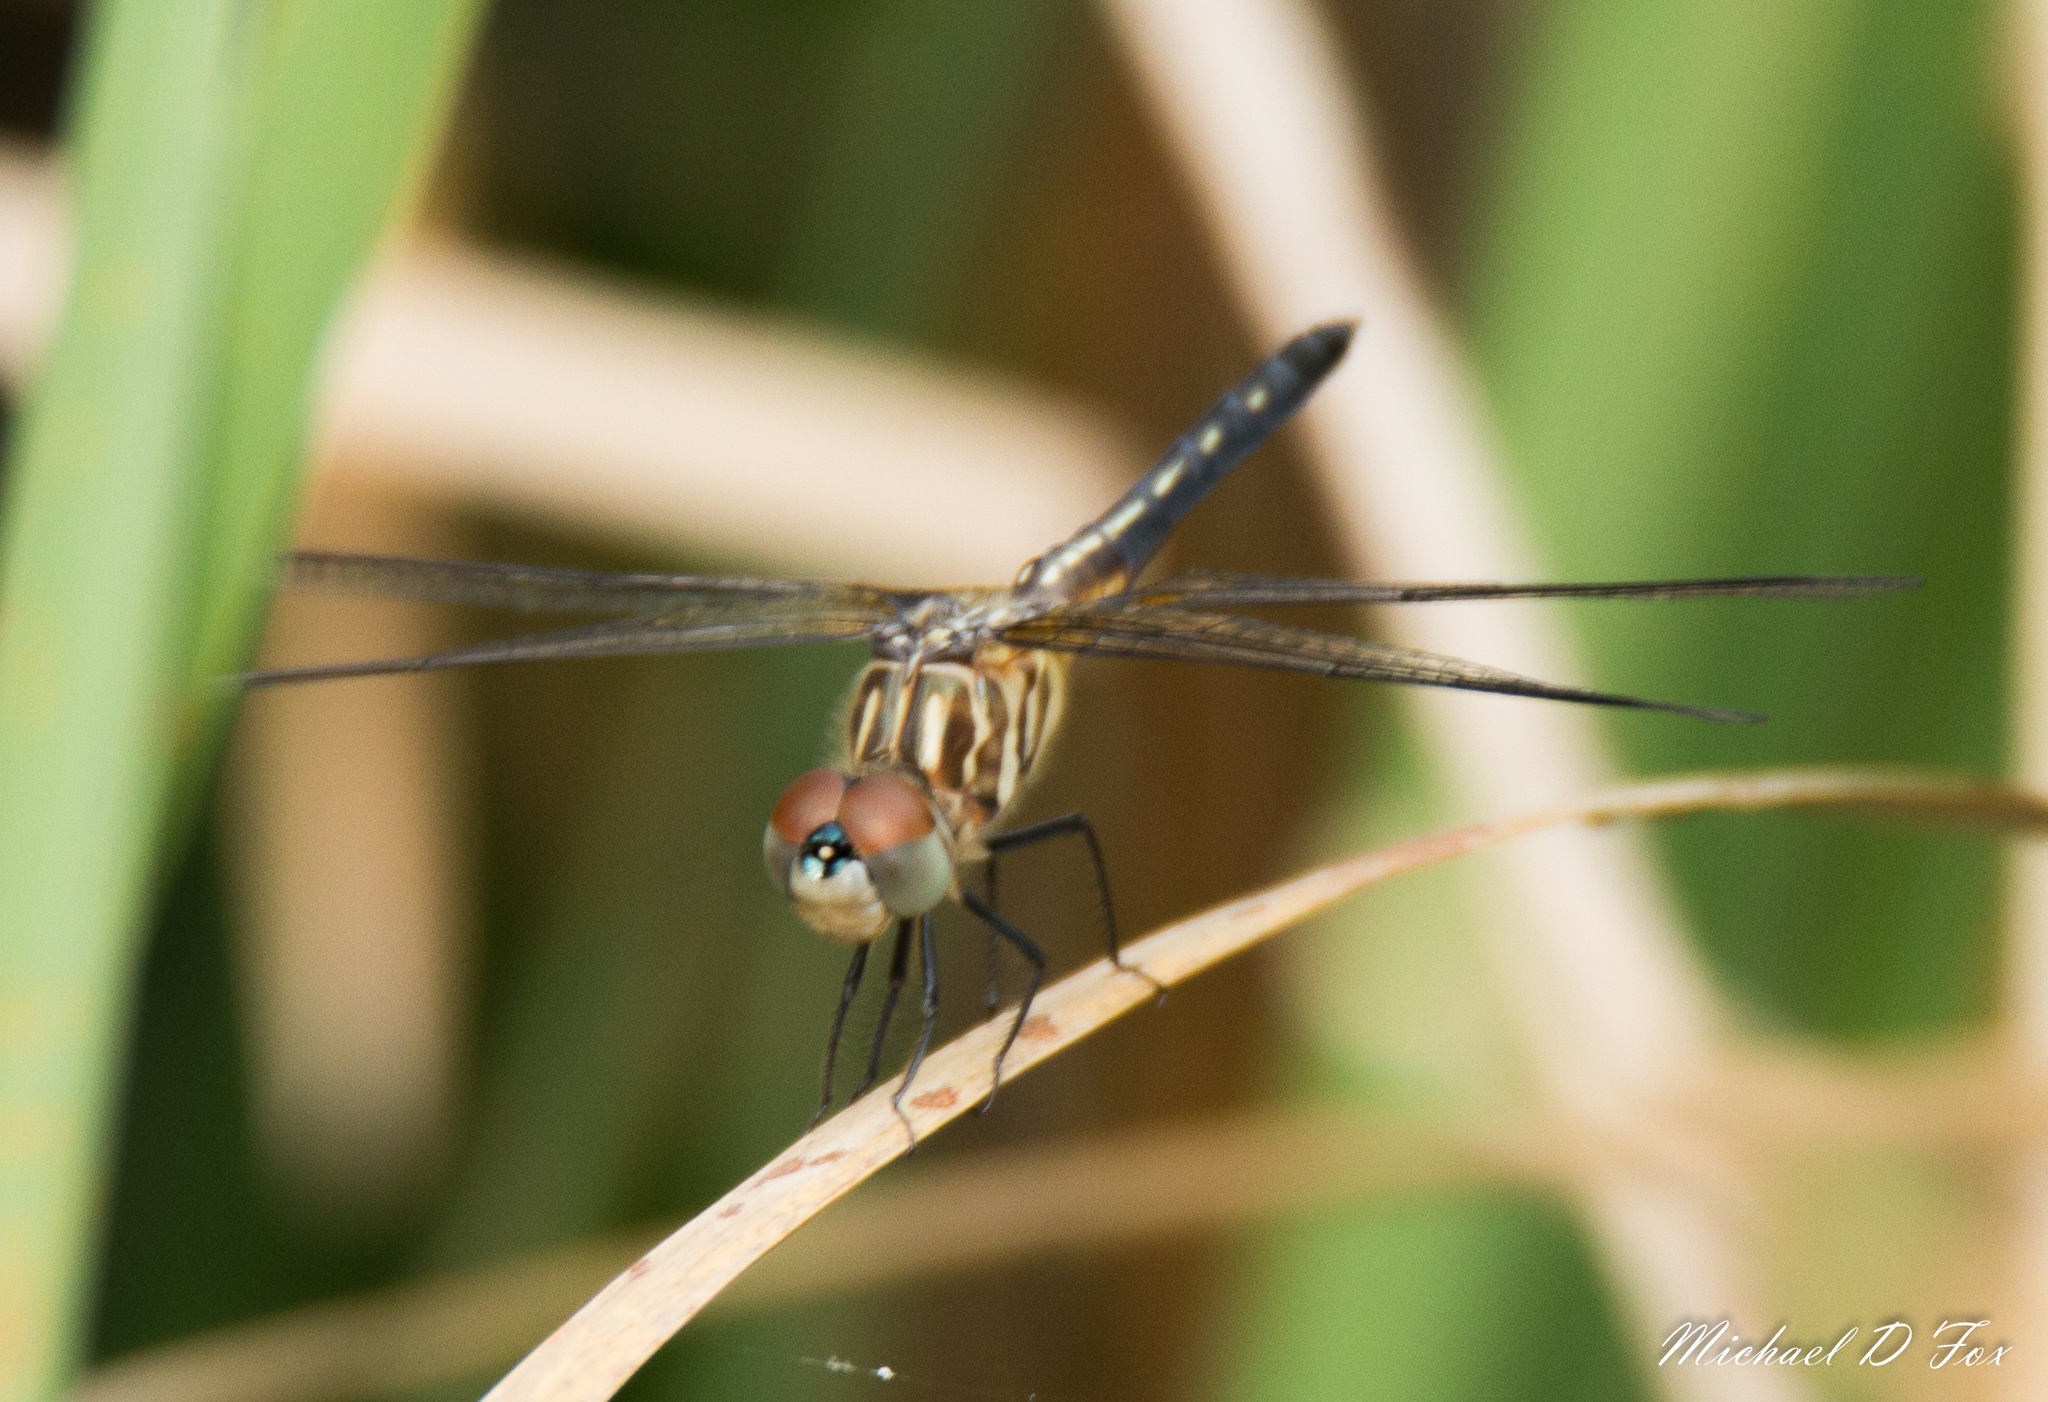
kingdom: Animalia
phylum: Arthropoda
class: Insecta
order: Odonata
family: Libellulidae
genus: Pachydiplax
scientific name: Pachydiplax longipennis
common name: Blue dasher
